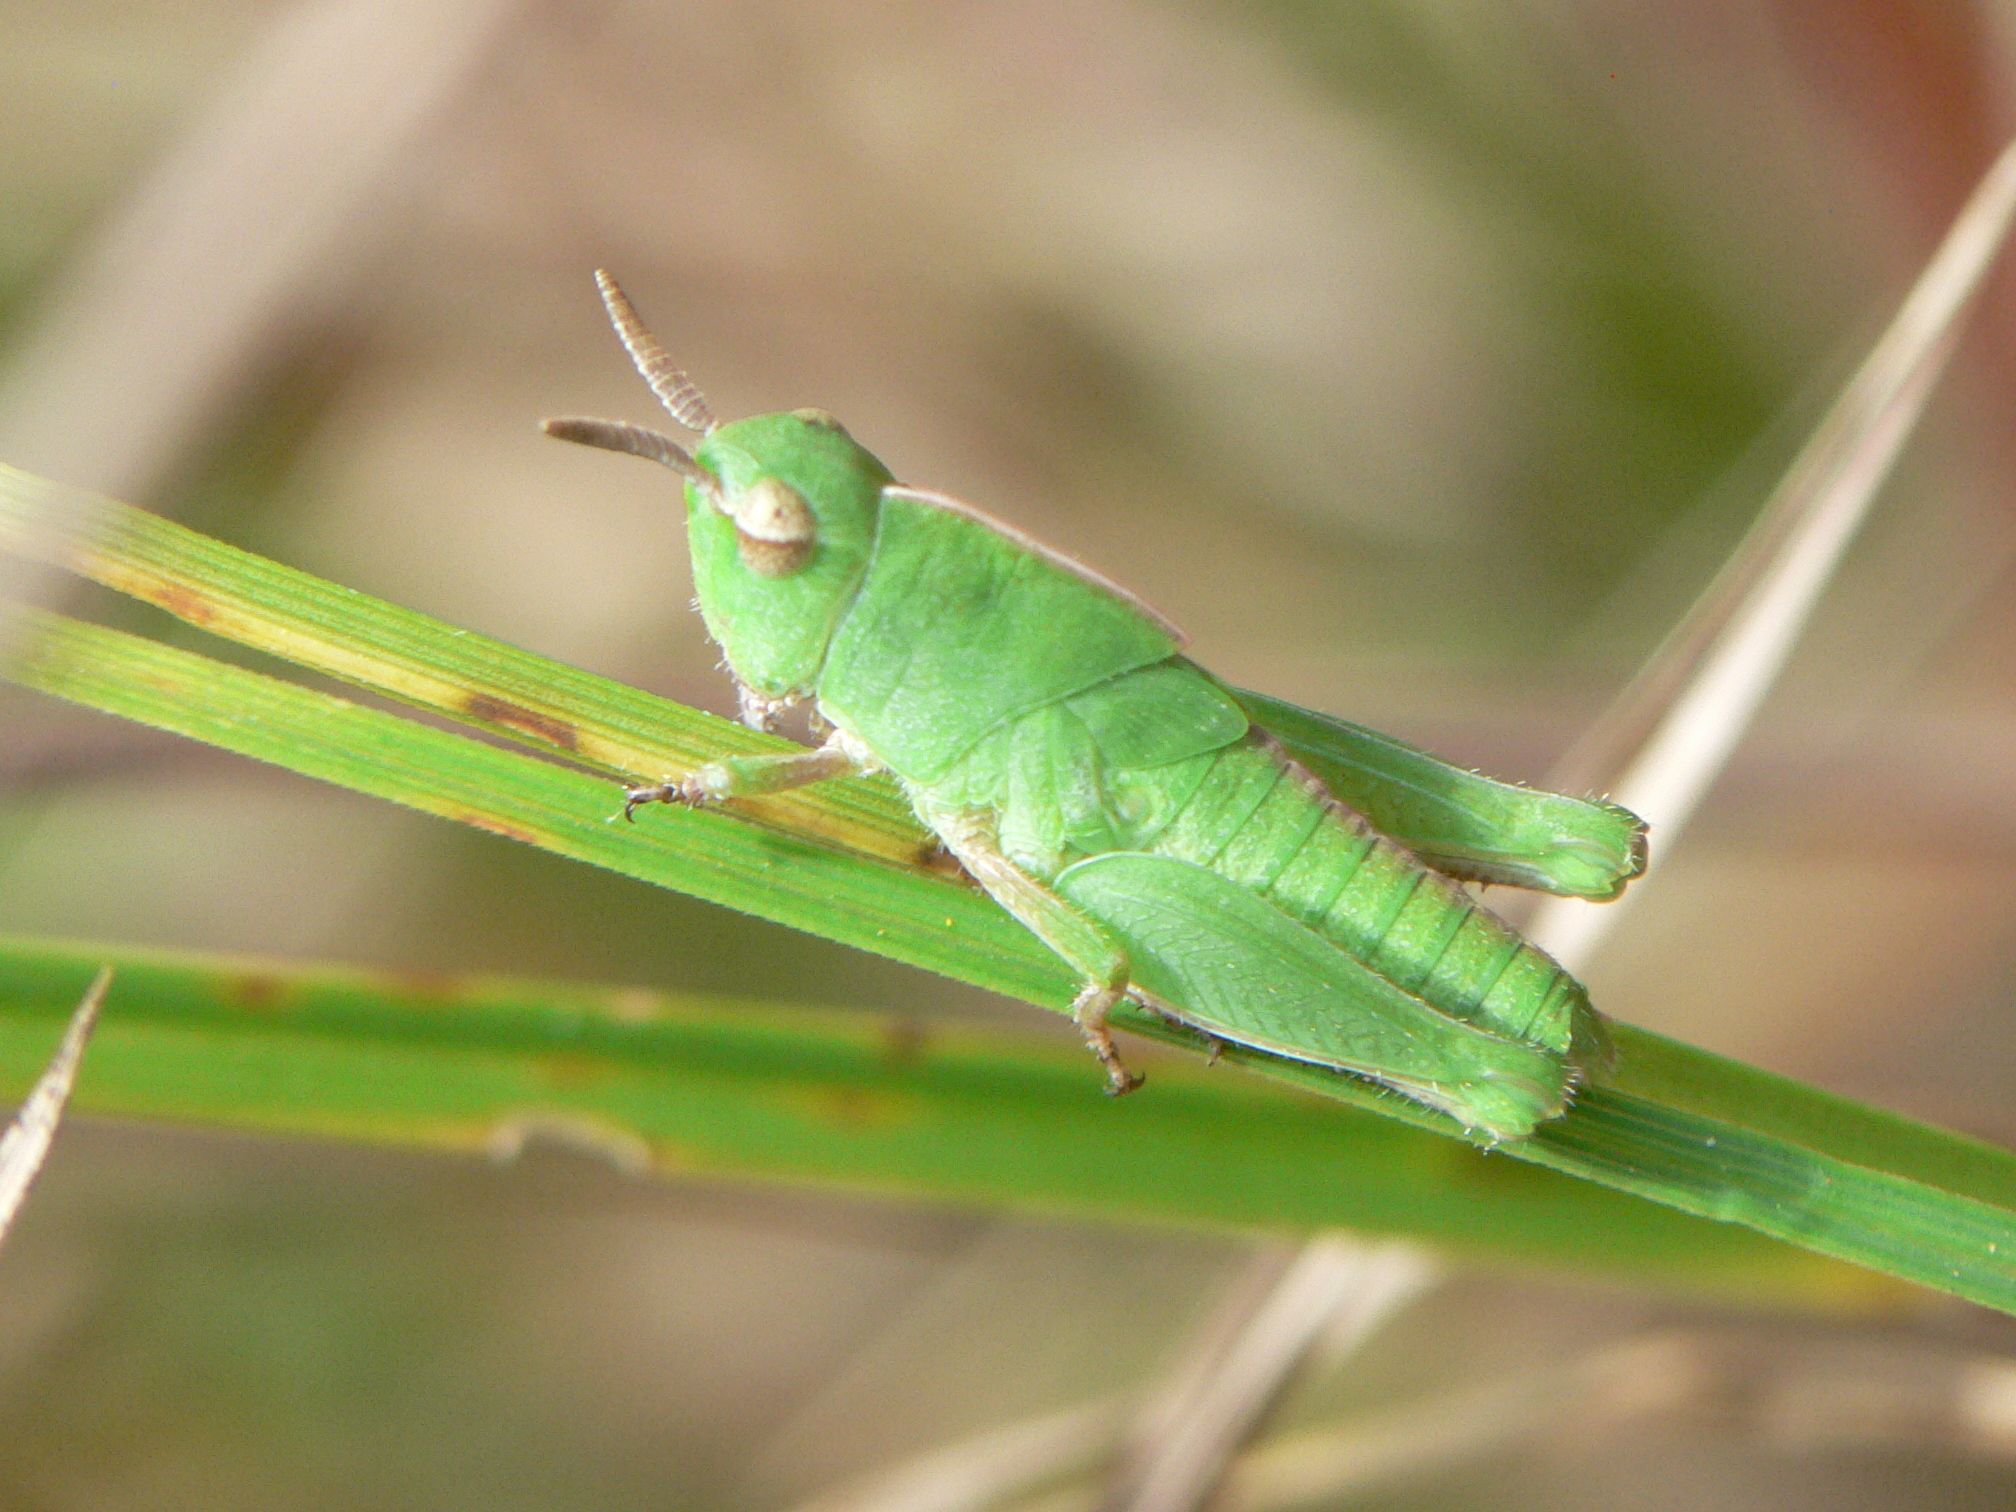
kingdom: Animalia
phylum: Arthropoda
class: Insecta
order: Orthoptera
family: Acrididae
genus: Chortophaga
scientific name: Chortophaga viridifasciata
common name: Green-striped grasshopper
